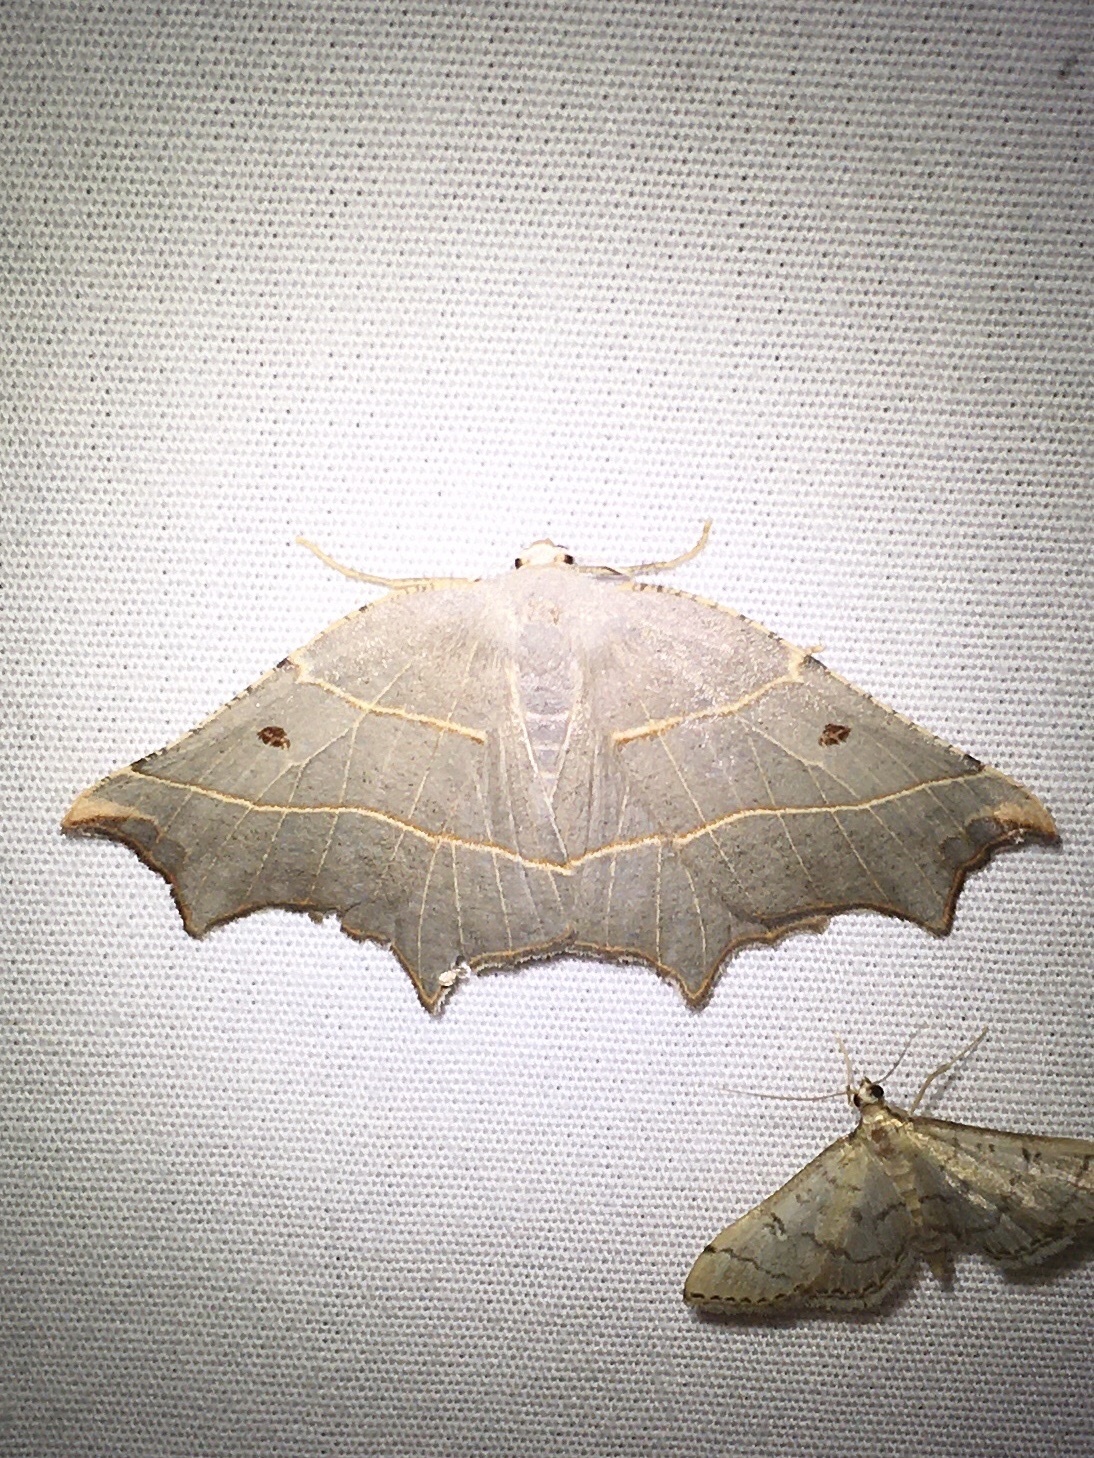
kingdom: Animalia
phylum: Arthropoda
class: Insecta
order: Lepidoptera
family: Geometridae
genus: Metanema
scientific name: Metanema inatomaria
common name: Pale metanema
